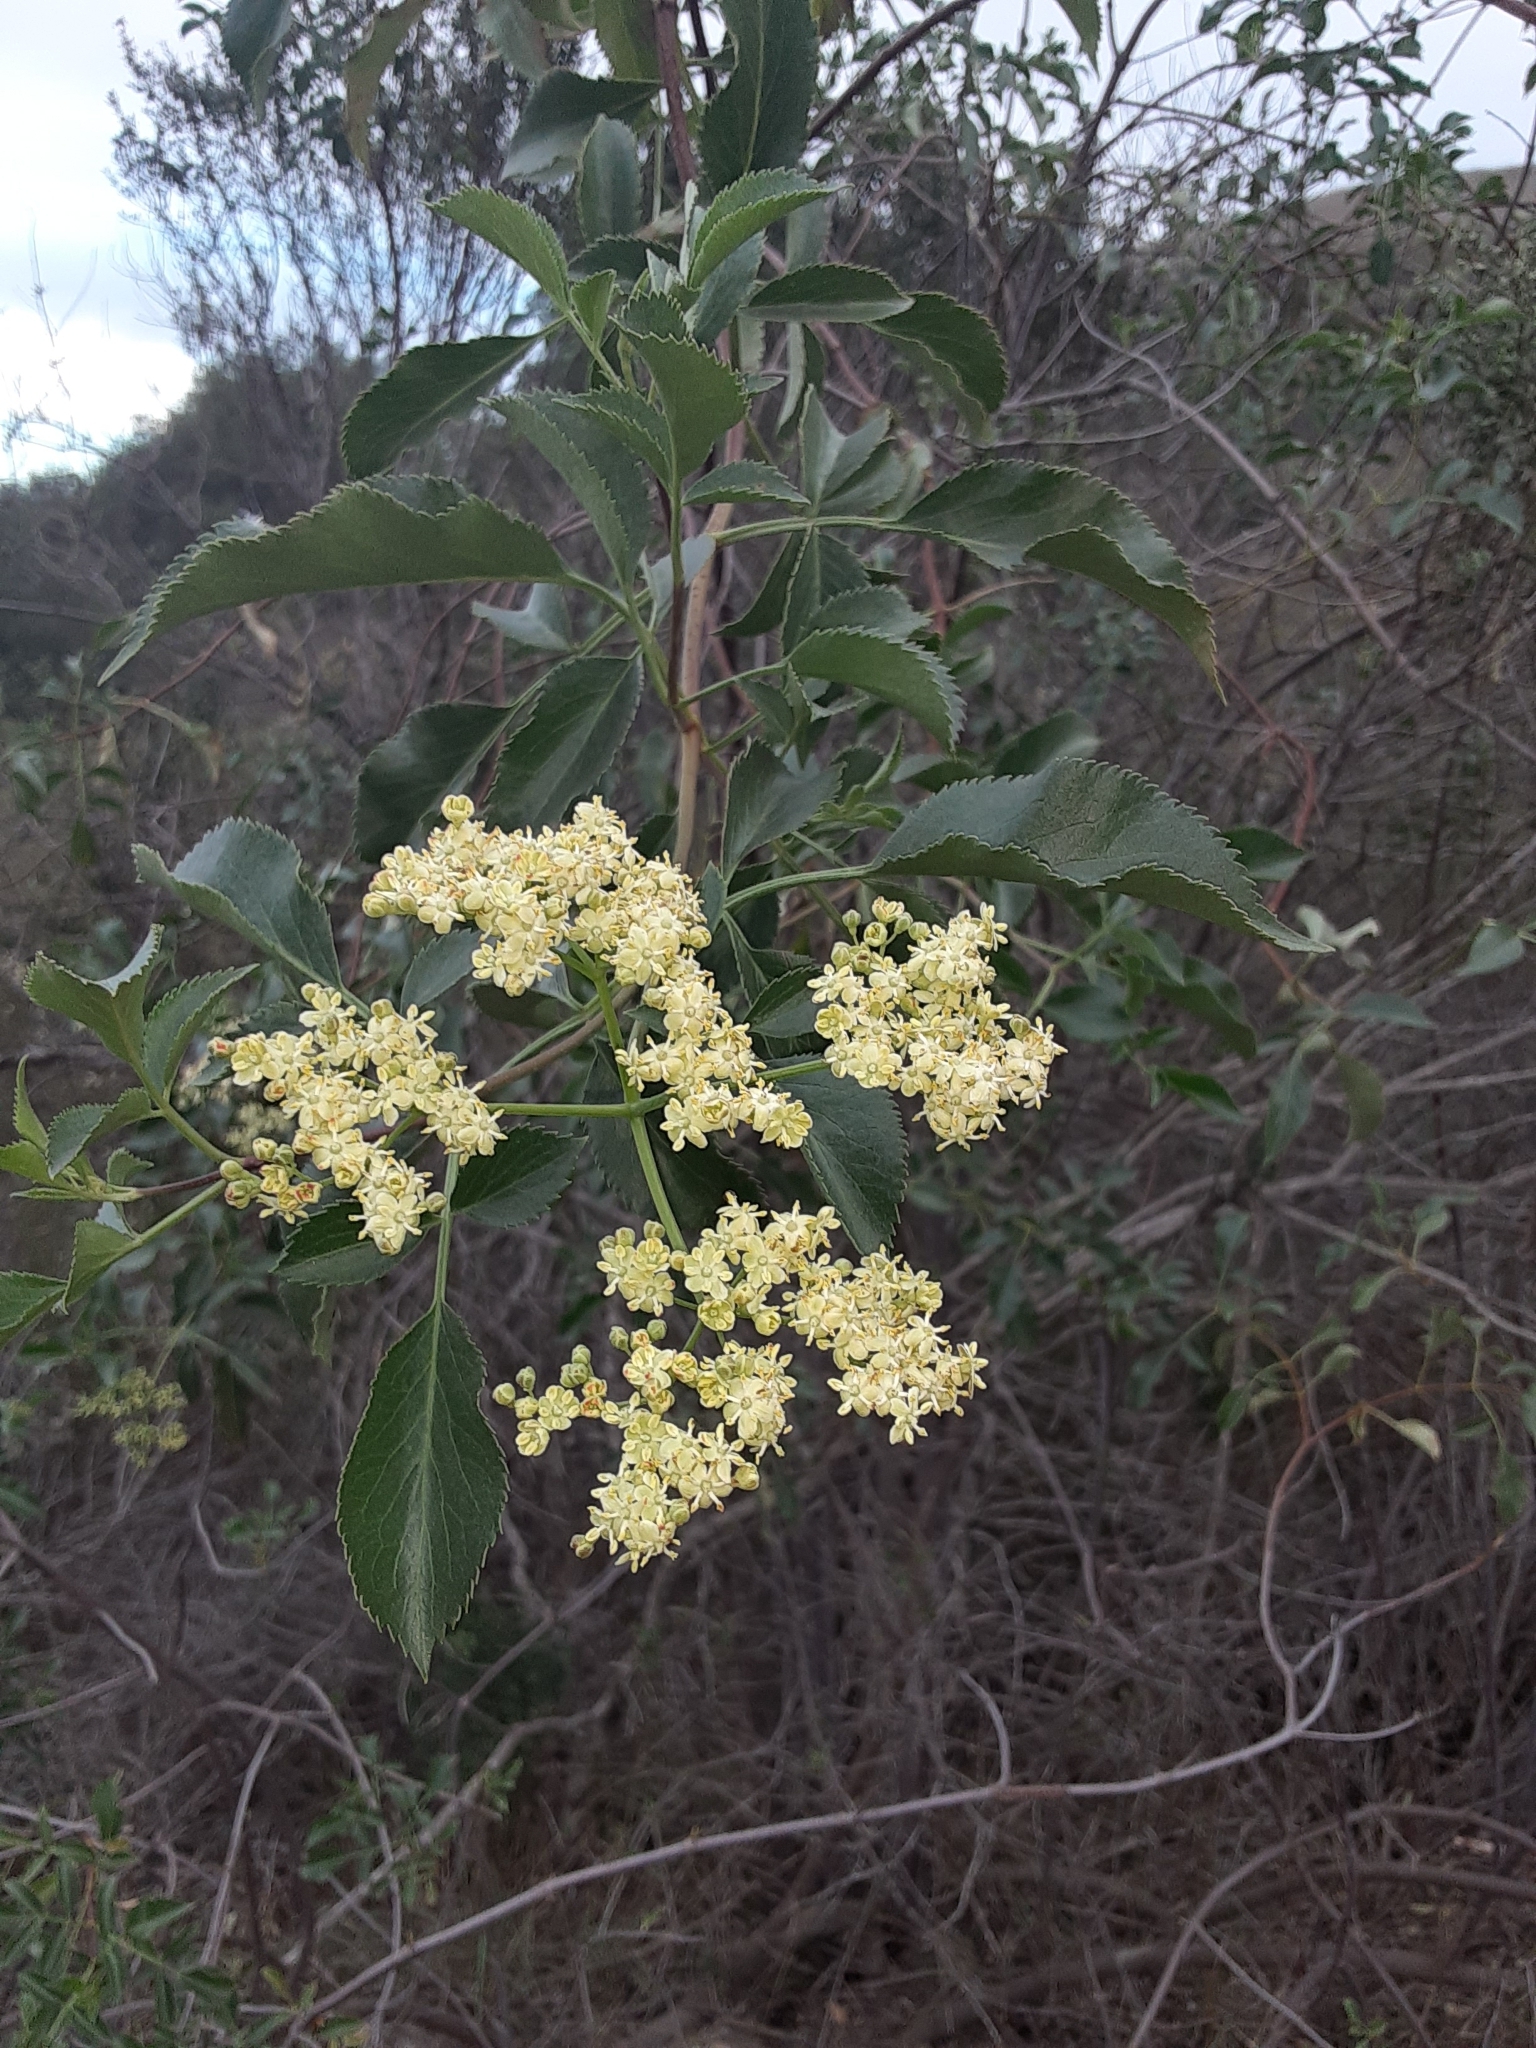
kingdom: Plantae
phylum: Tracheophyta
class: Magnoliopsida
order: Dipsacales
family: Viburnaceae
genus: Sambucus
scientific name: Sambucus cerulea
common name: Blue elder
